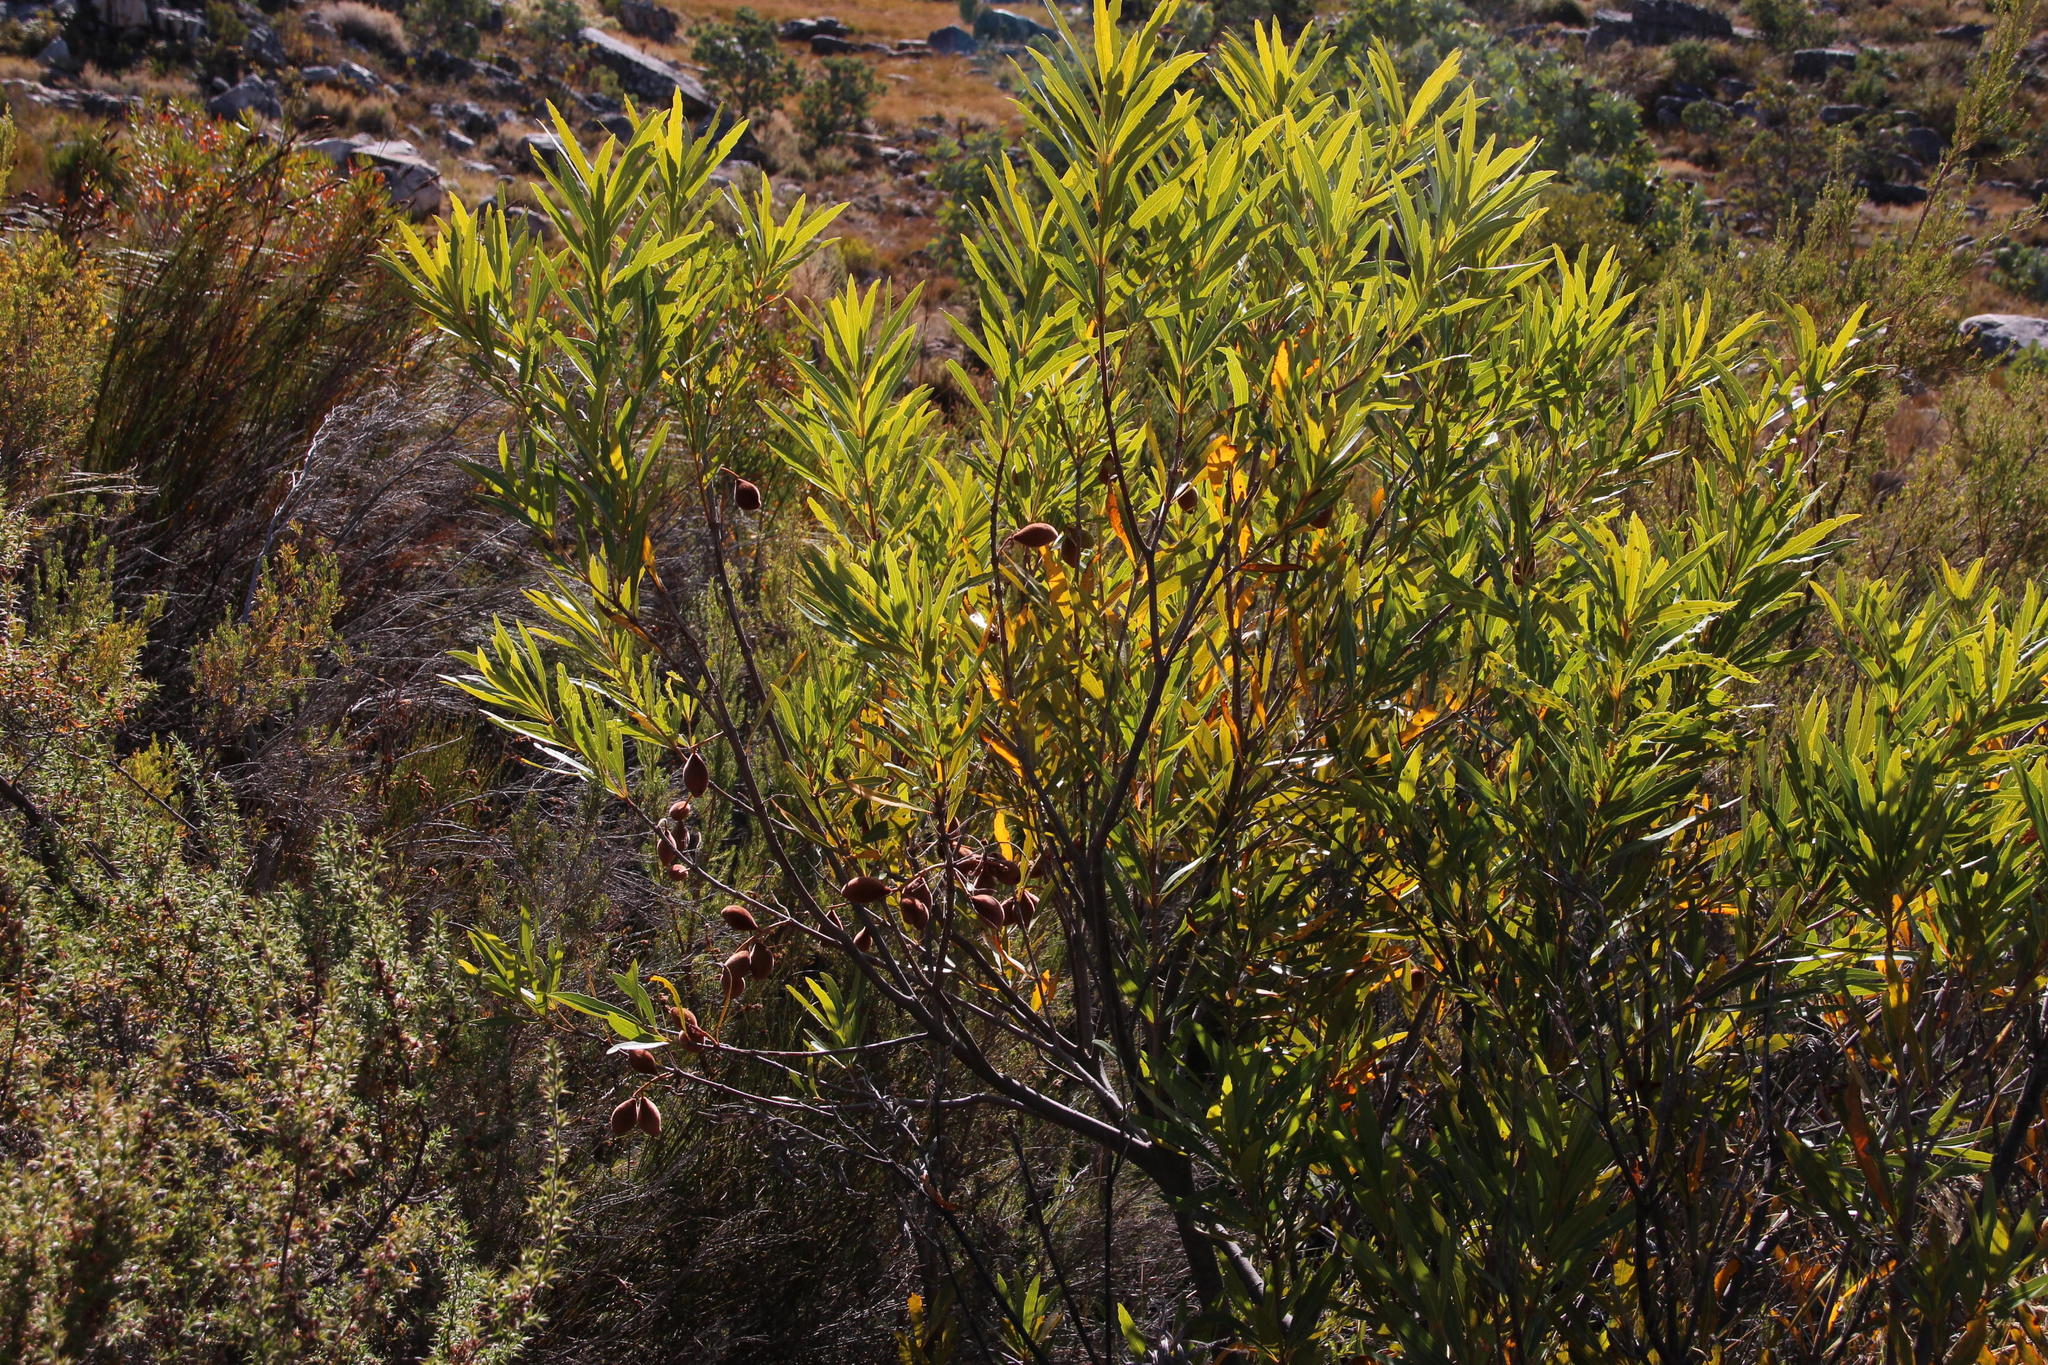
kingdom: Plantae
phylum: Tracheophyta
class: Magnoliopsida
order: Proteales
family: Proteaceae
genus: Brabejum
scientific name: Brabejum stellatifolium
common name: Wild almond
